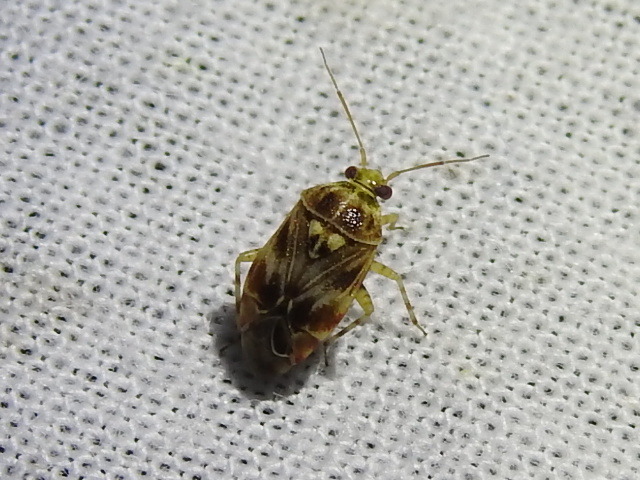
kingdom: Animalia
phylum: Arthropoda
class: Insecta
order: Hemiptera
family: Miridae
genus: Tropidosteptes
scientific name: Tropidosteptes quercicola
